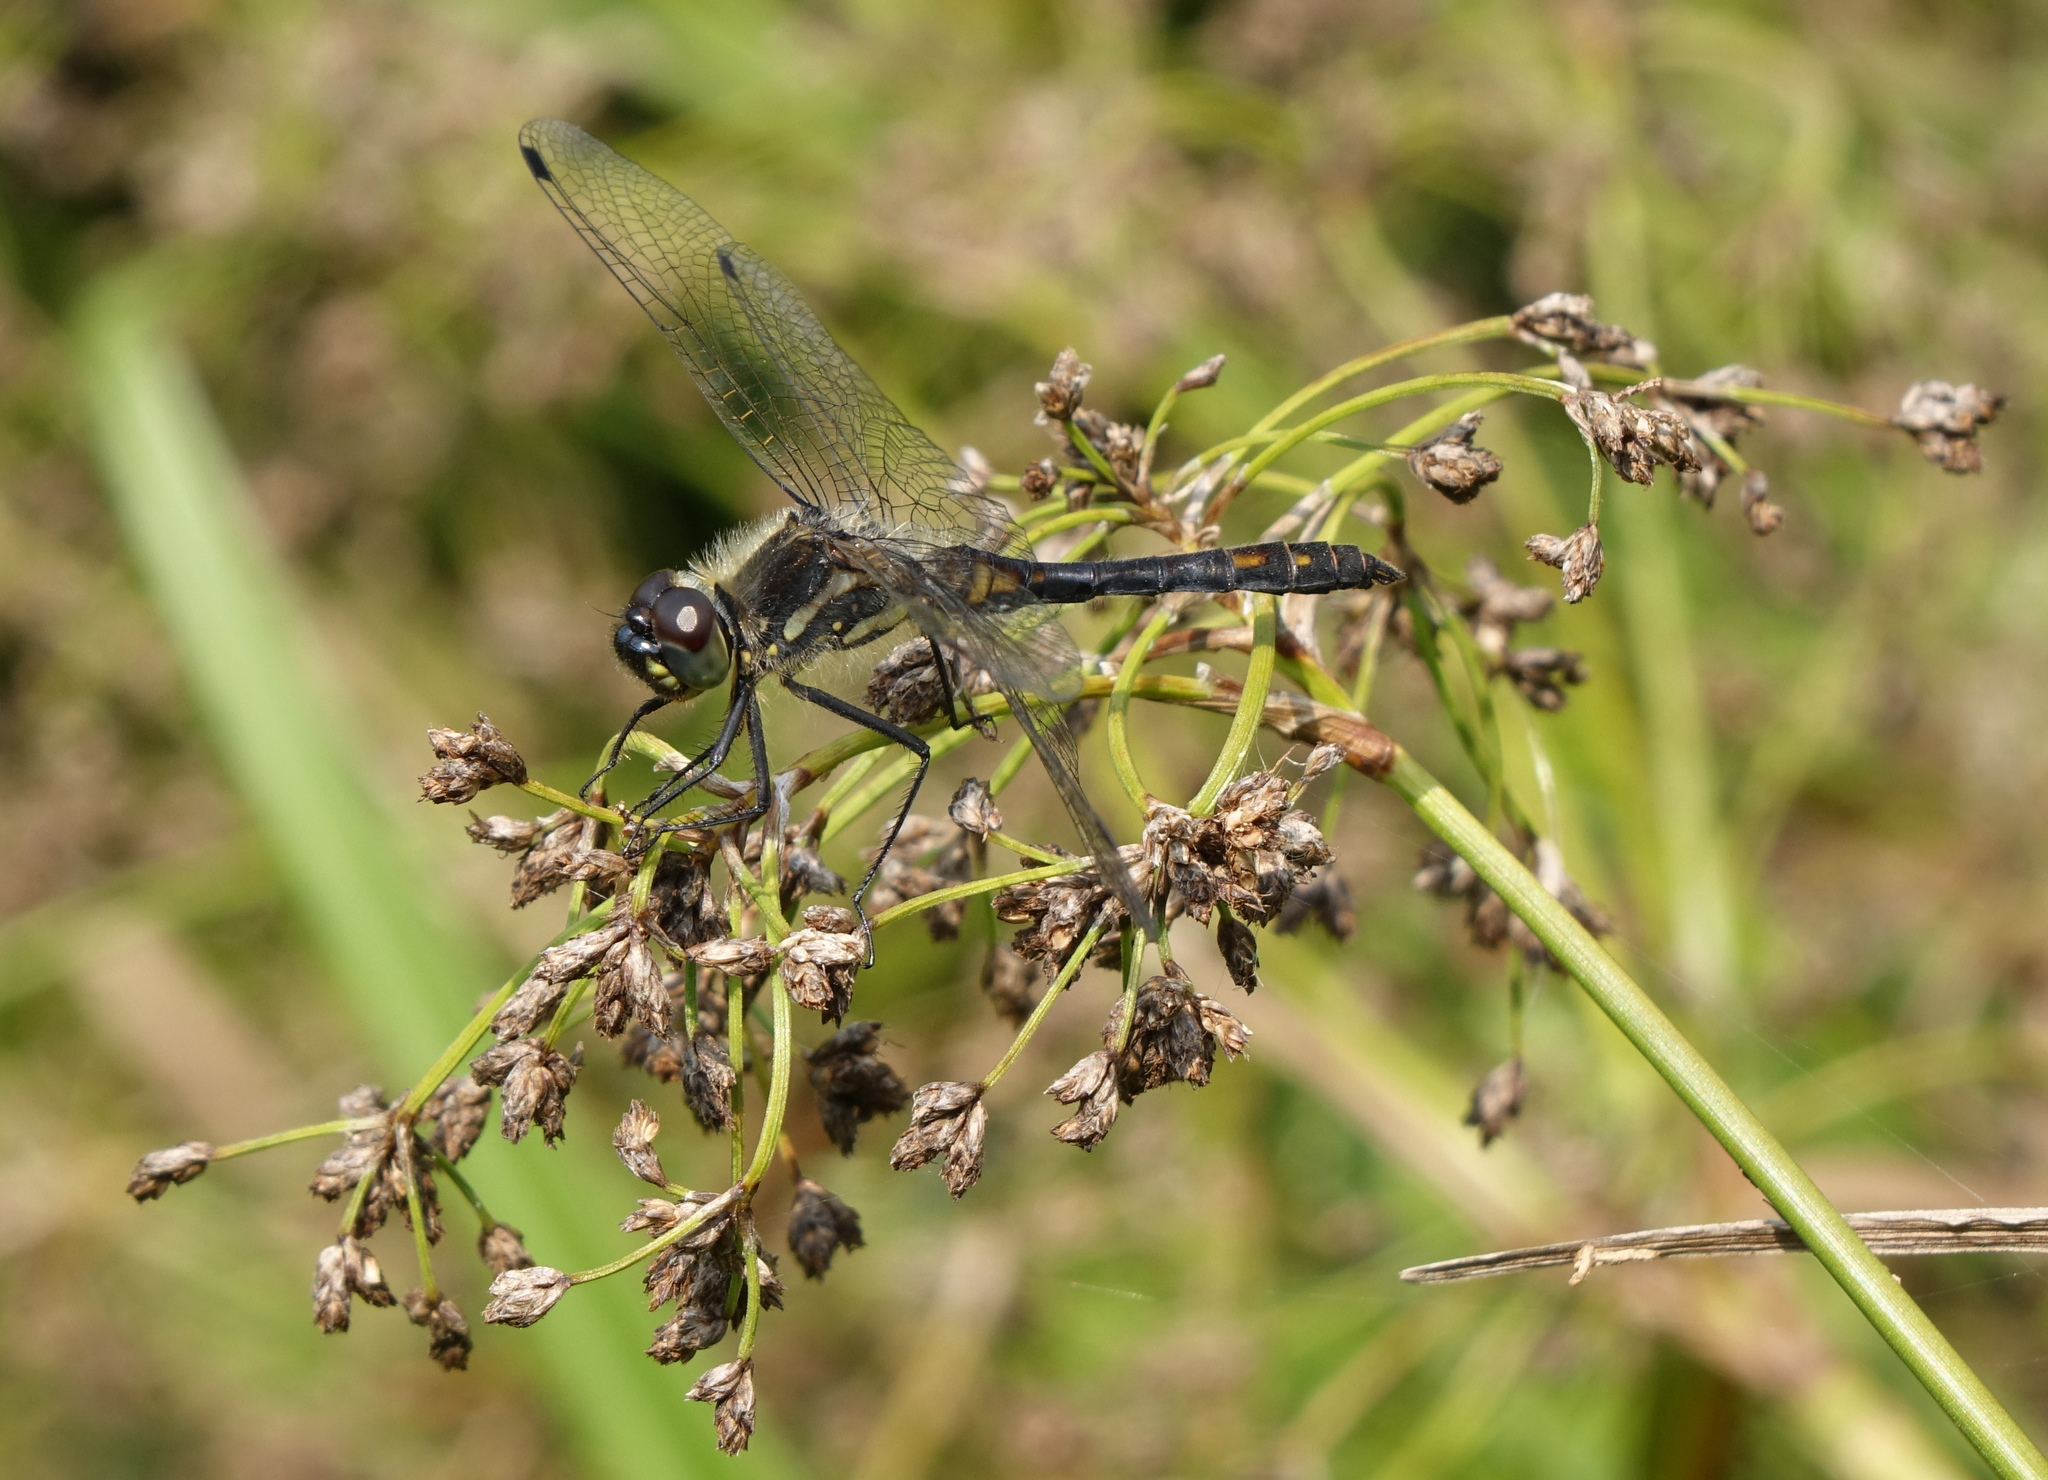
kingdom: Plantae
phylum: Tracheophyta
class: Liliopsida
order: Poales
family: Cyperaceae
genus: Scirpus
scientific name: Scirpus sylvaticus
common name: Wood club-rush
